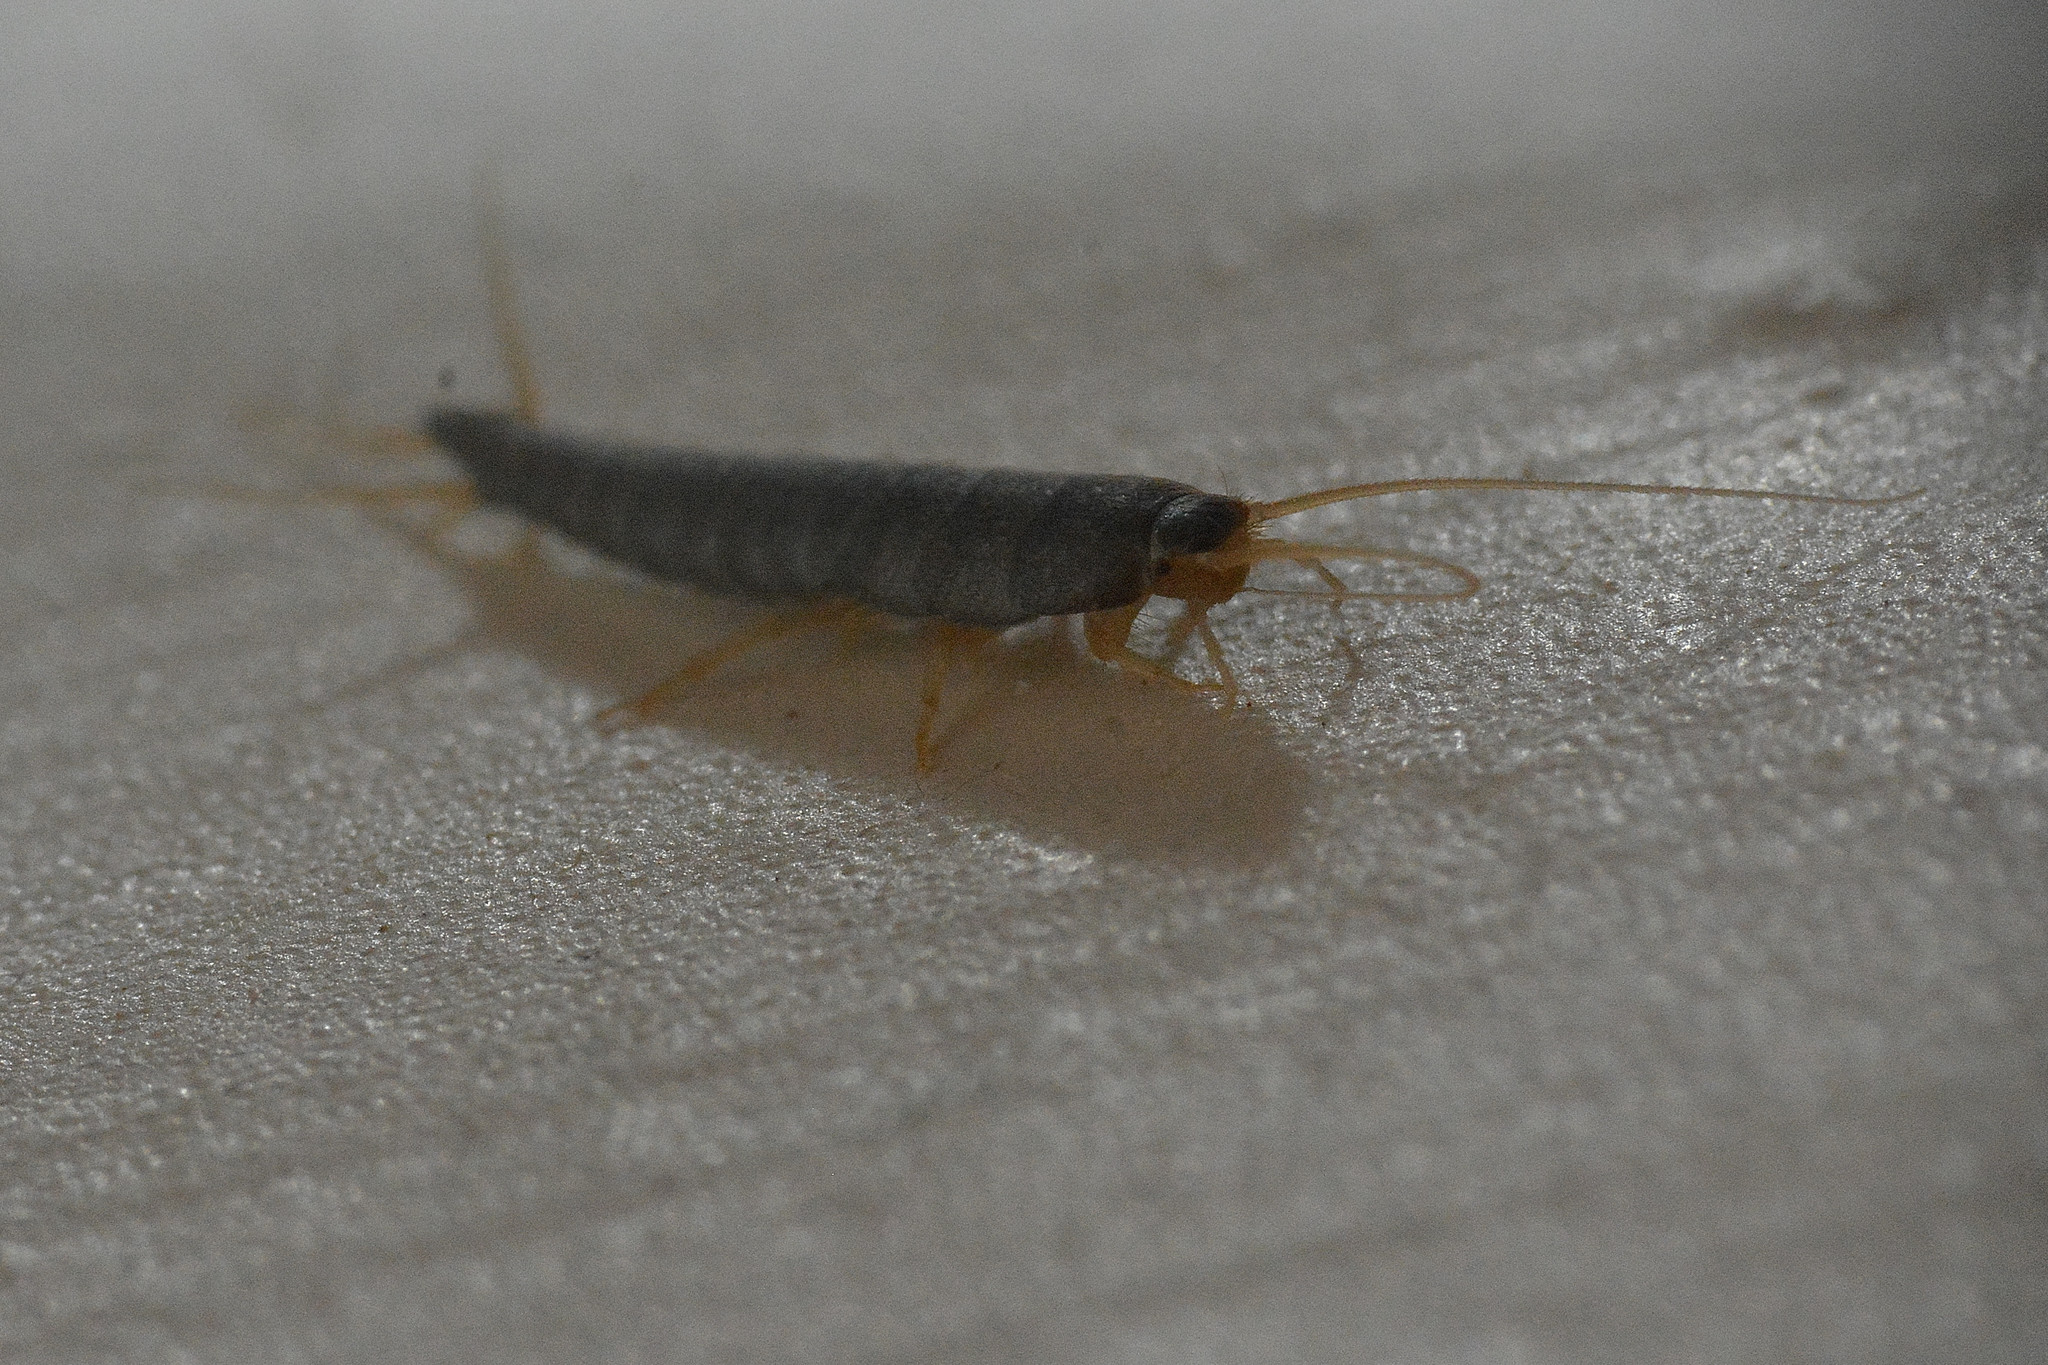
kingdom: Animalia
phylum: Arthropoda
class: Insecta
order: Zygentoma
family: Lepismatidae
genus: Lepisma
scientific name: Lepisma saccharinum
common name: Silverfish
